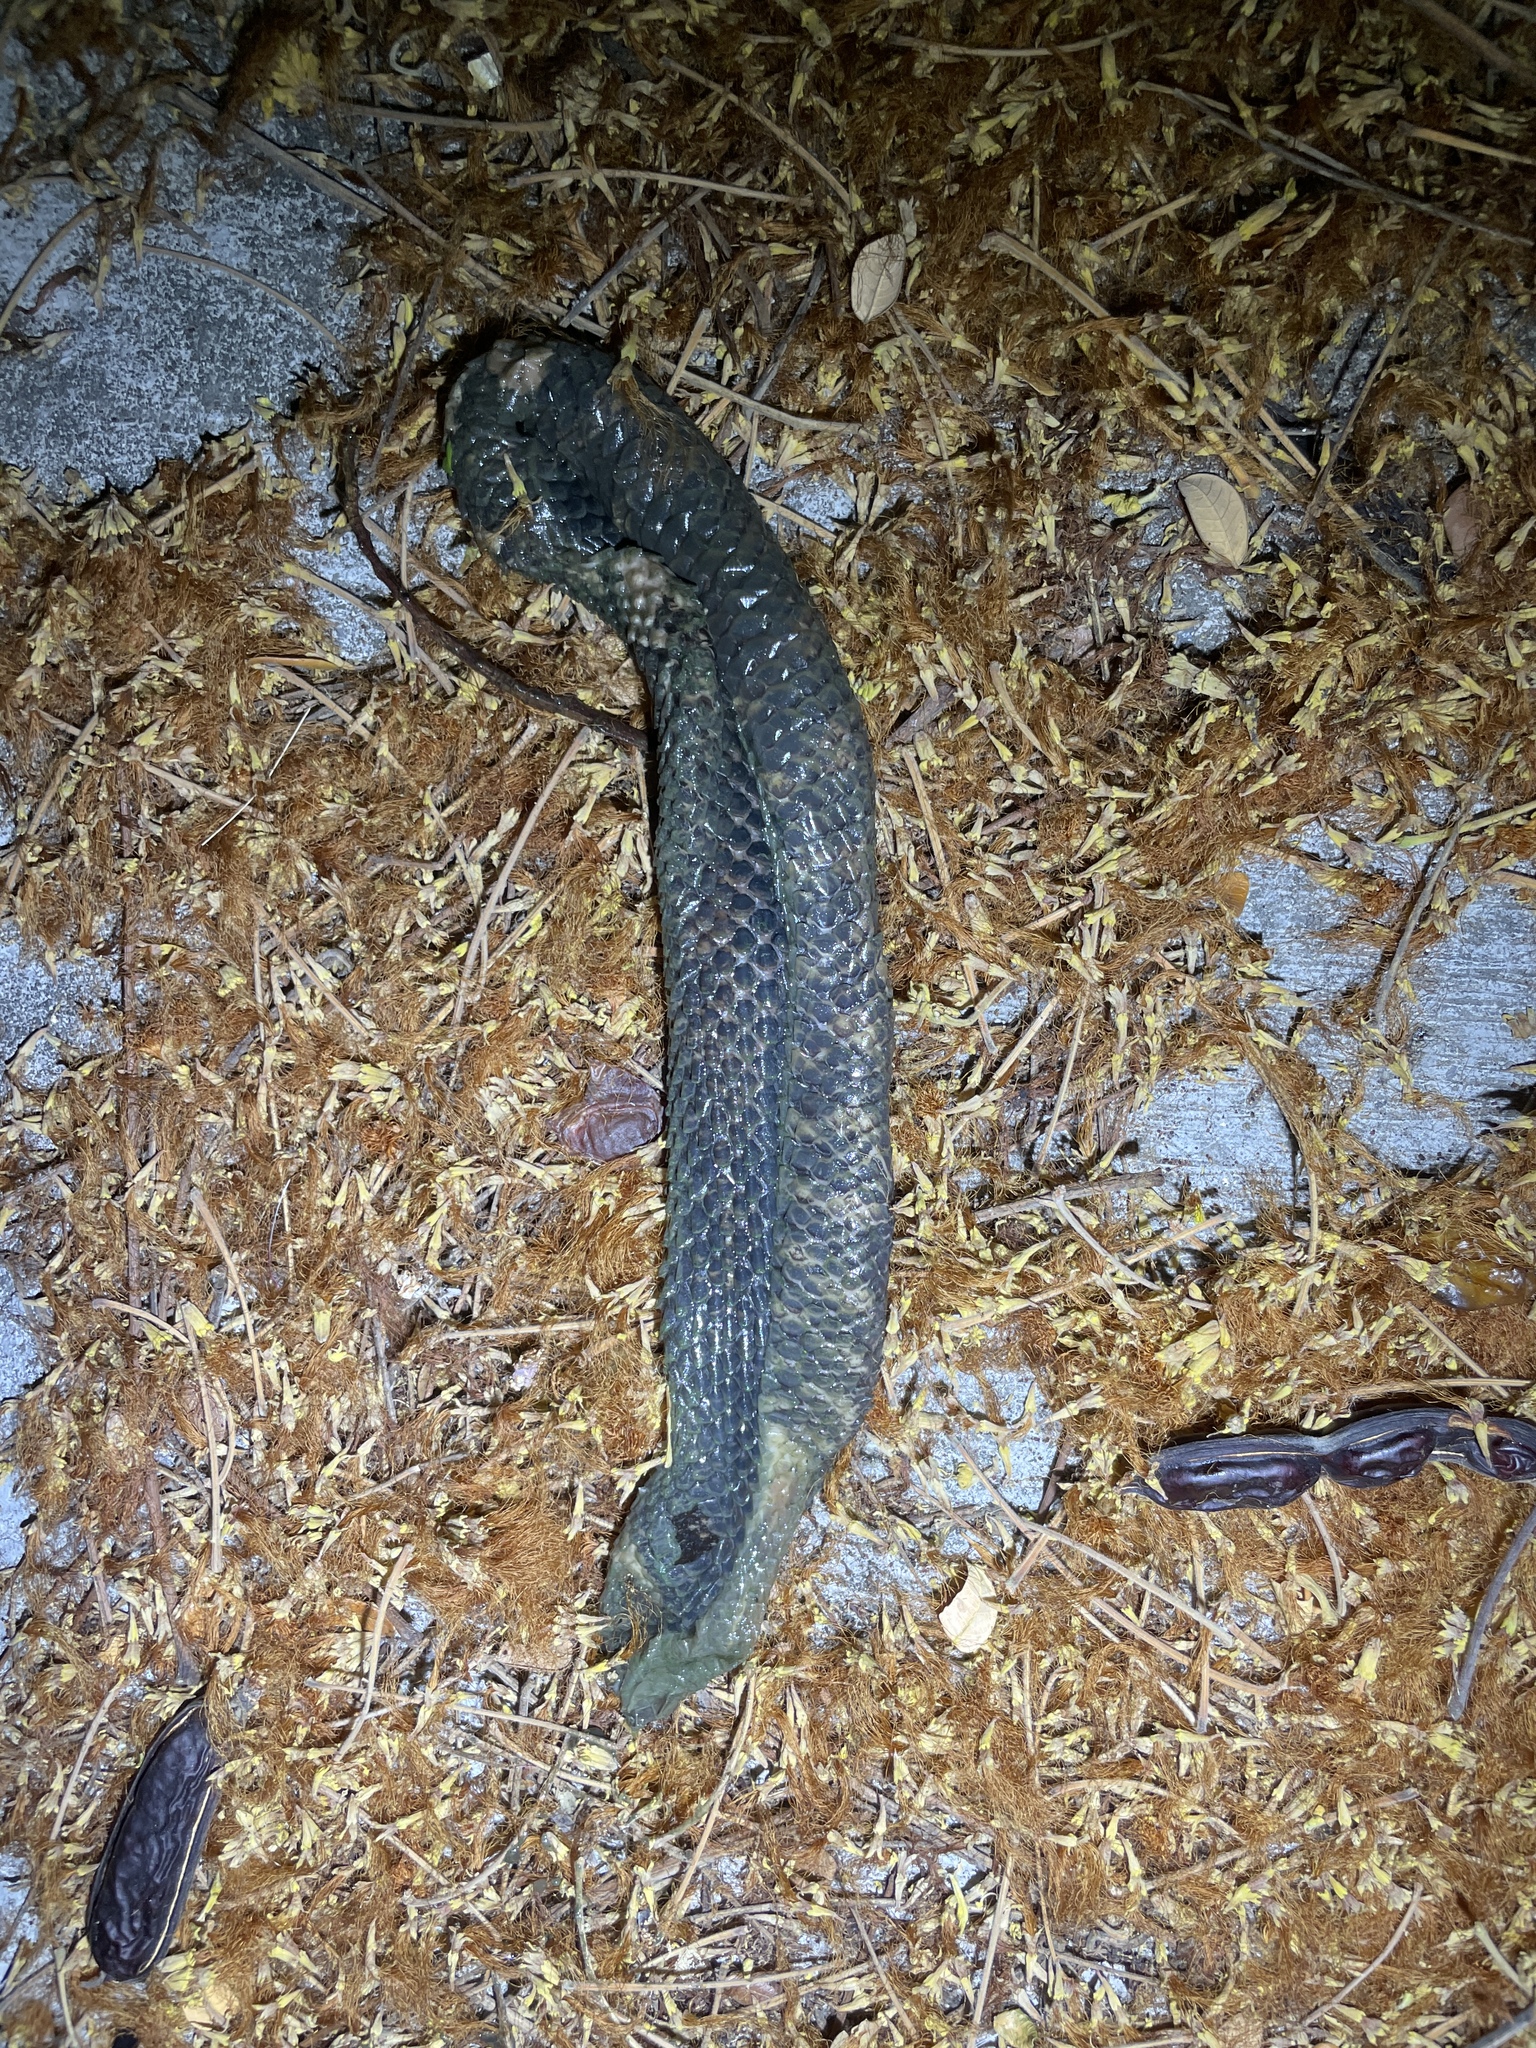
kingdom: Animalia
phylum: Chordata
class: Squamata
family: Cylindrophiidae
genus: Cylindrophis
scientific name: Cylindrophis jodiae
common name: Jodi’s pipe-snake
